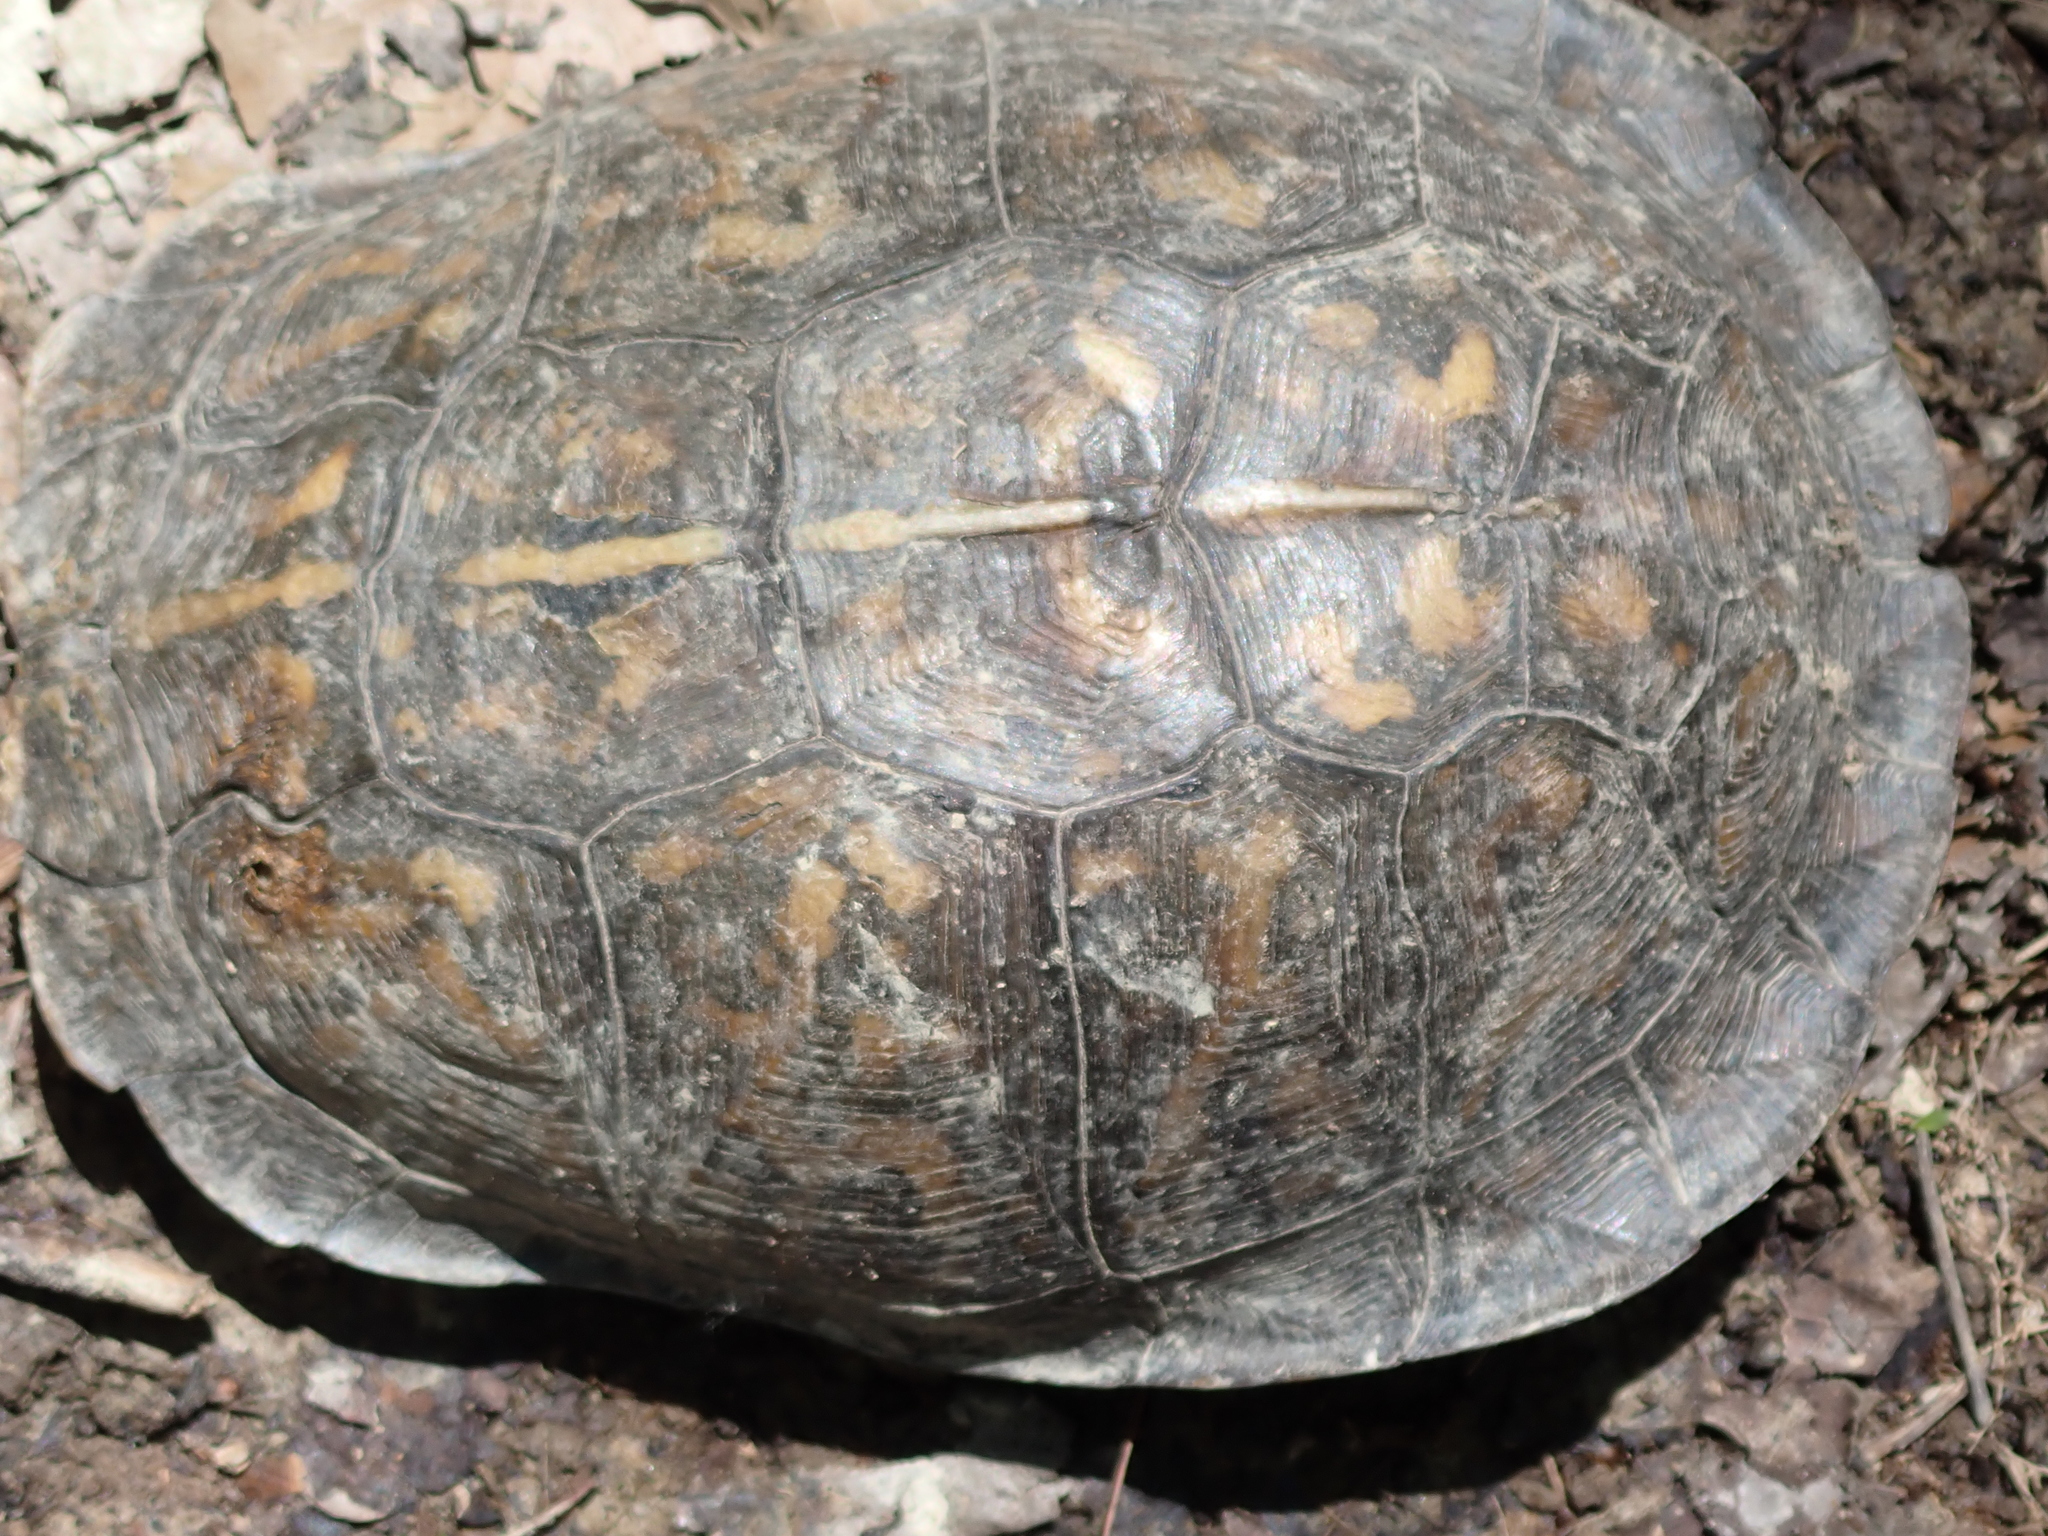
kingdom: Animalia
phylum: Chordata
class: Testudines
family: Emydidae
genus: Terrapene
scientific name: Terrapene carolina
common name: Common box turtle
